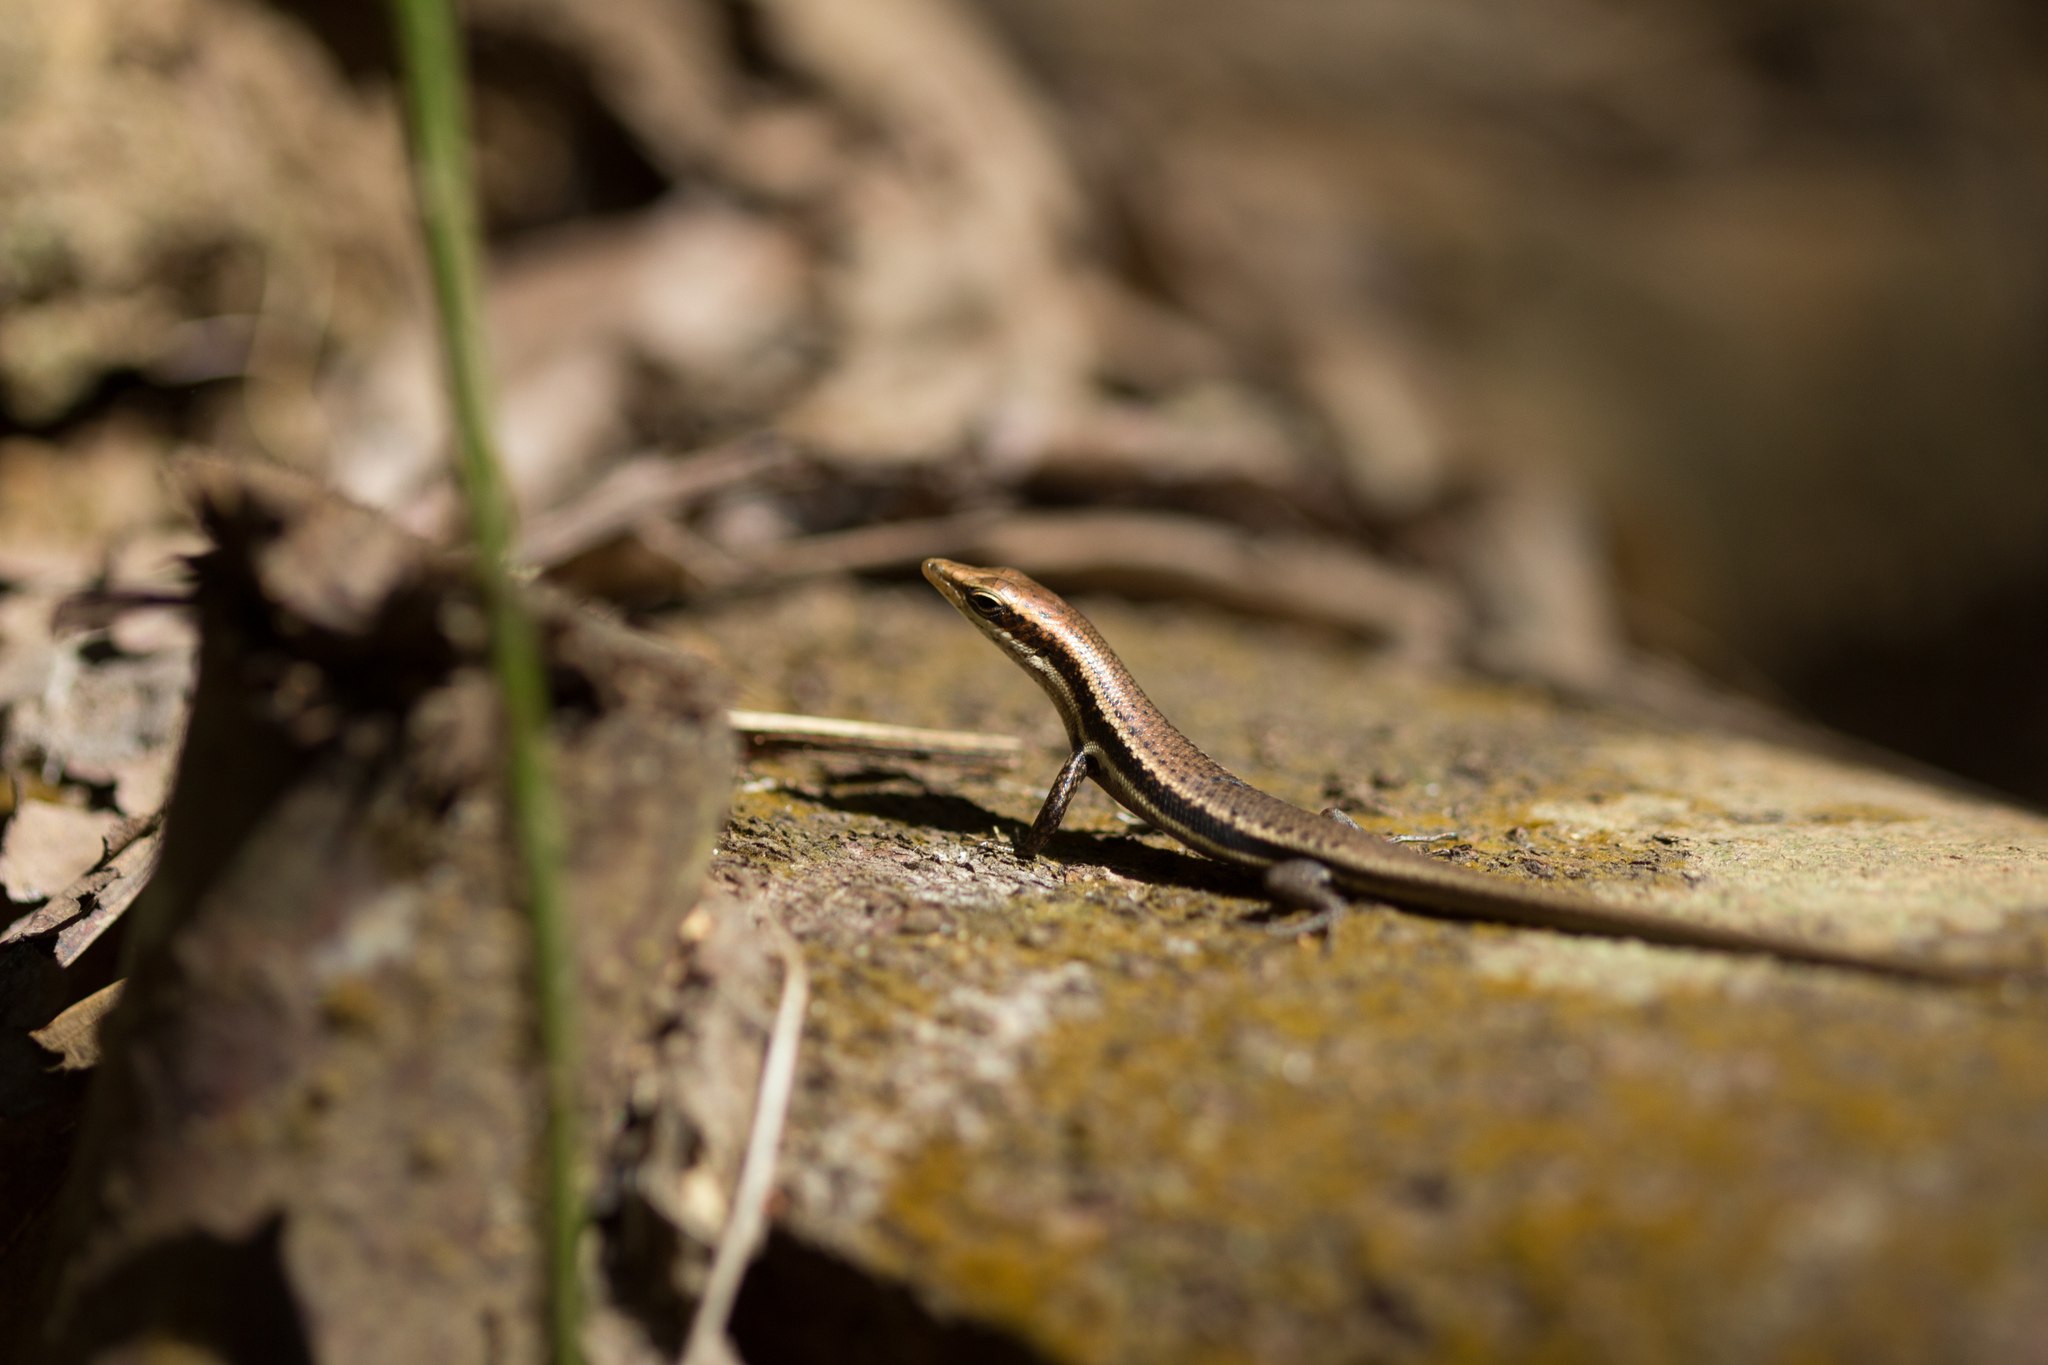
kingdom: Animalia
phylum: Chordata
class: Squamata
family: Scincidae
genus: Trachylepis
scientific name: Trachylepis sechellensis
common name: Seychelles skink
